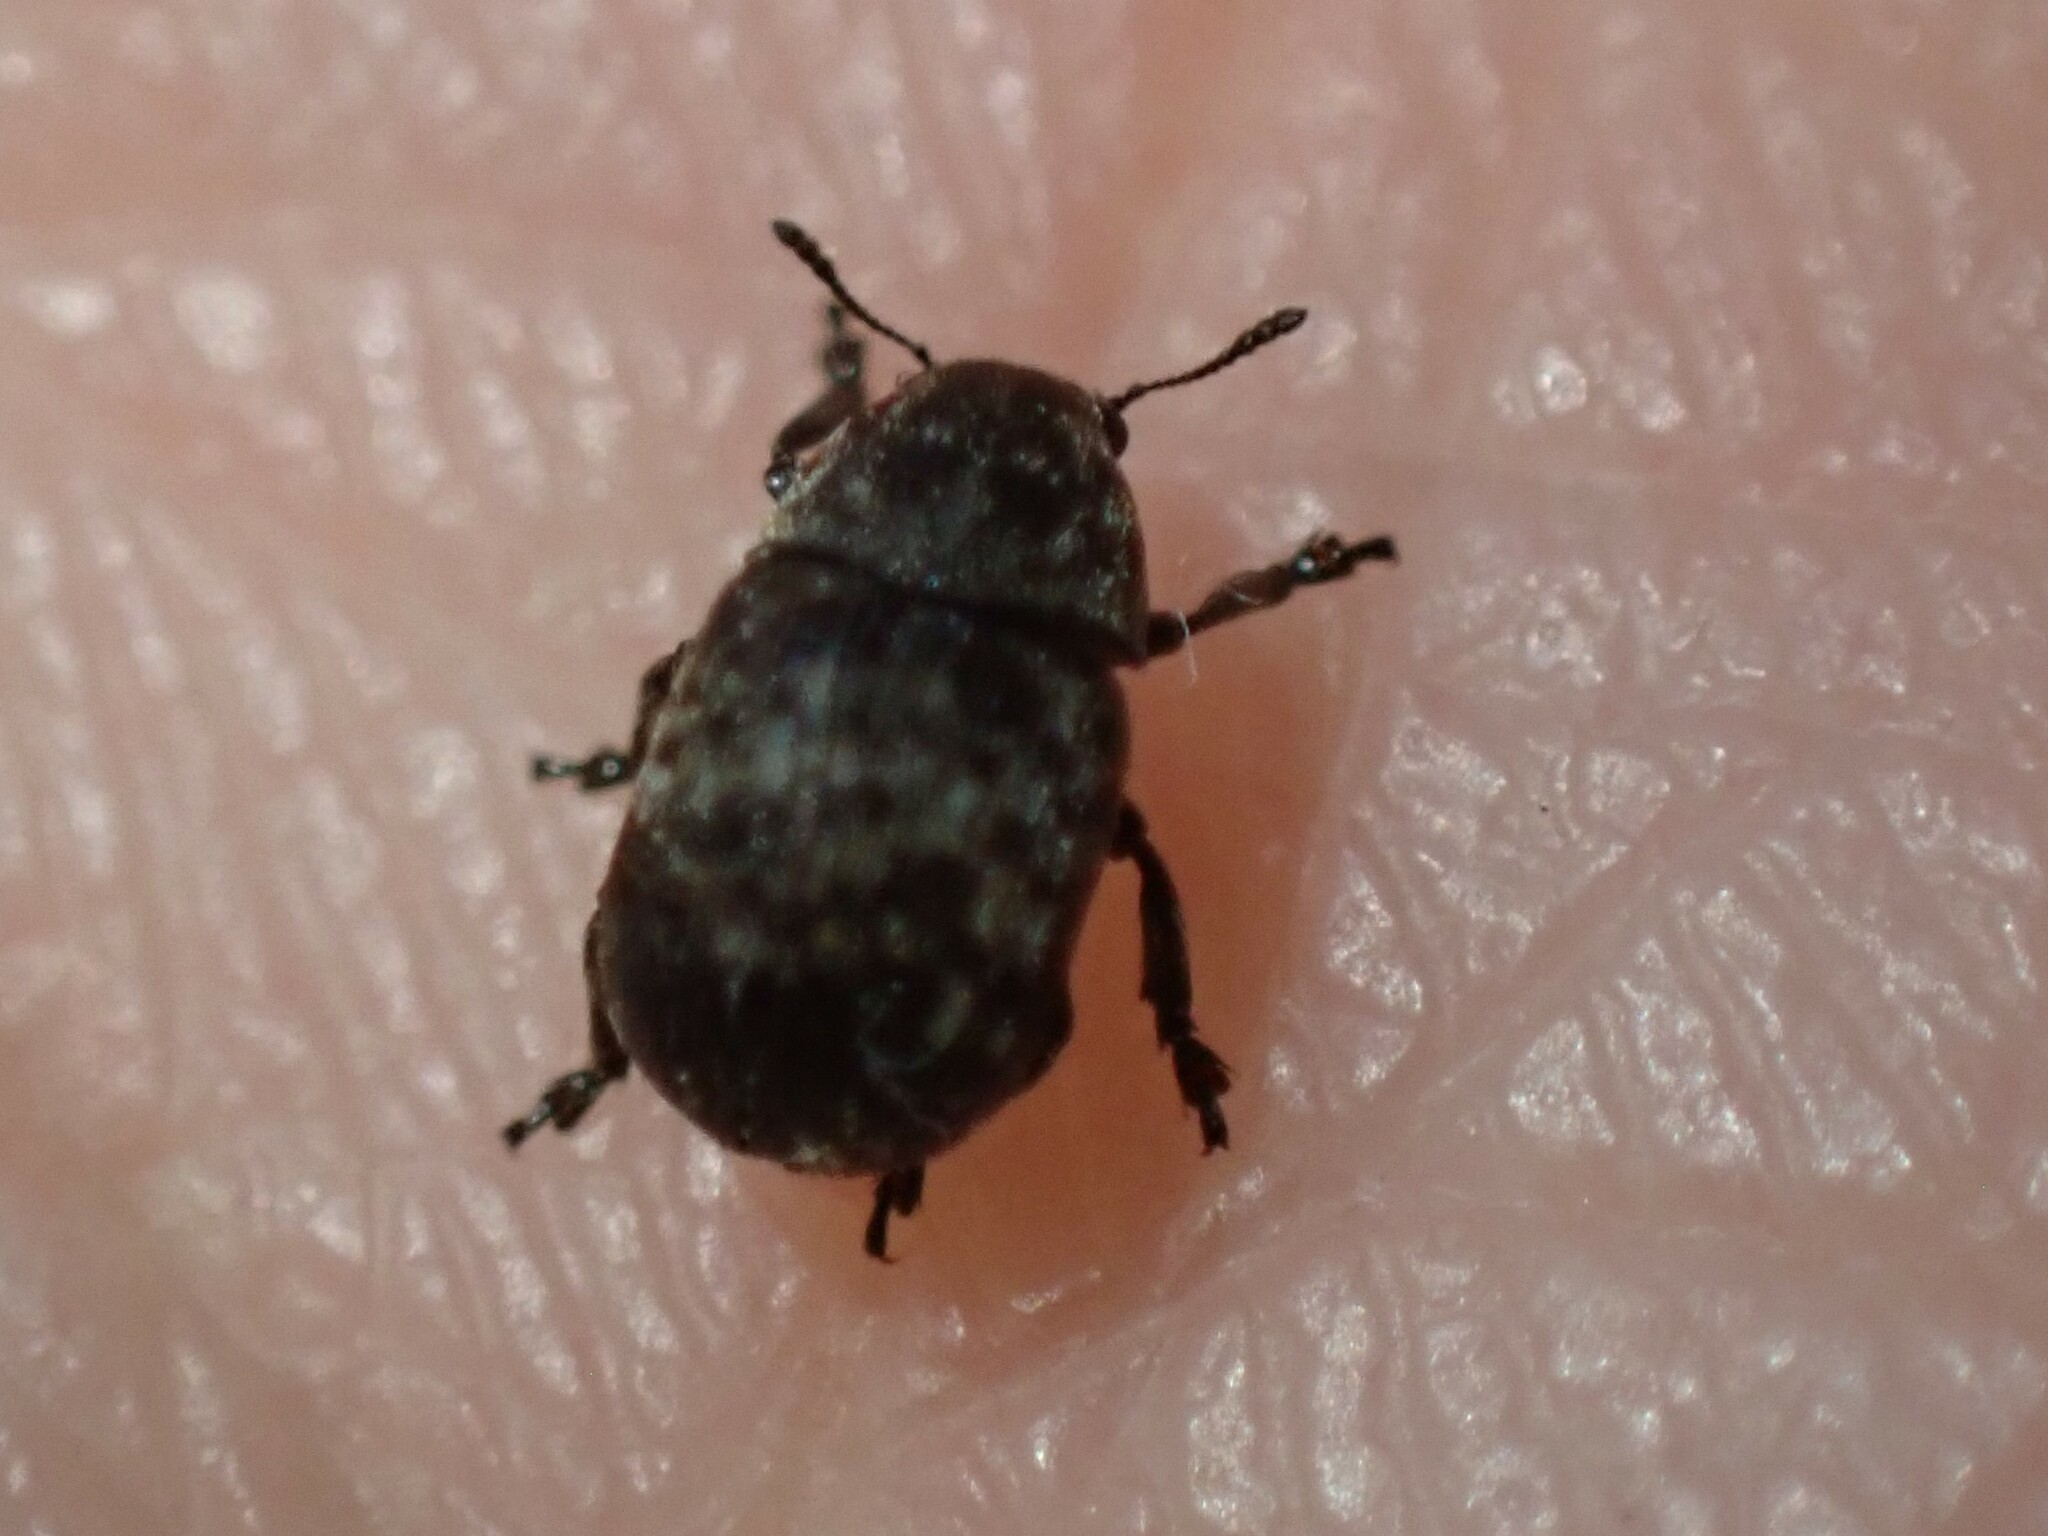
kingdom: Animalia
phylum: Arthropoda
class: Insecta
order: Coleoptera
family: Anthribidae
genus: Anthribus
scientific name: Anthribus nebulosus
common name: Fungus weevil
